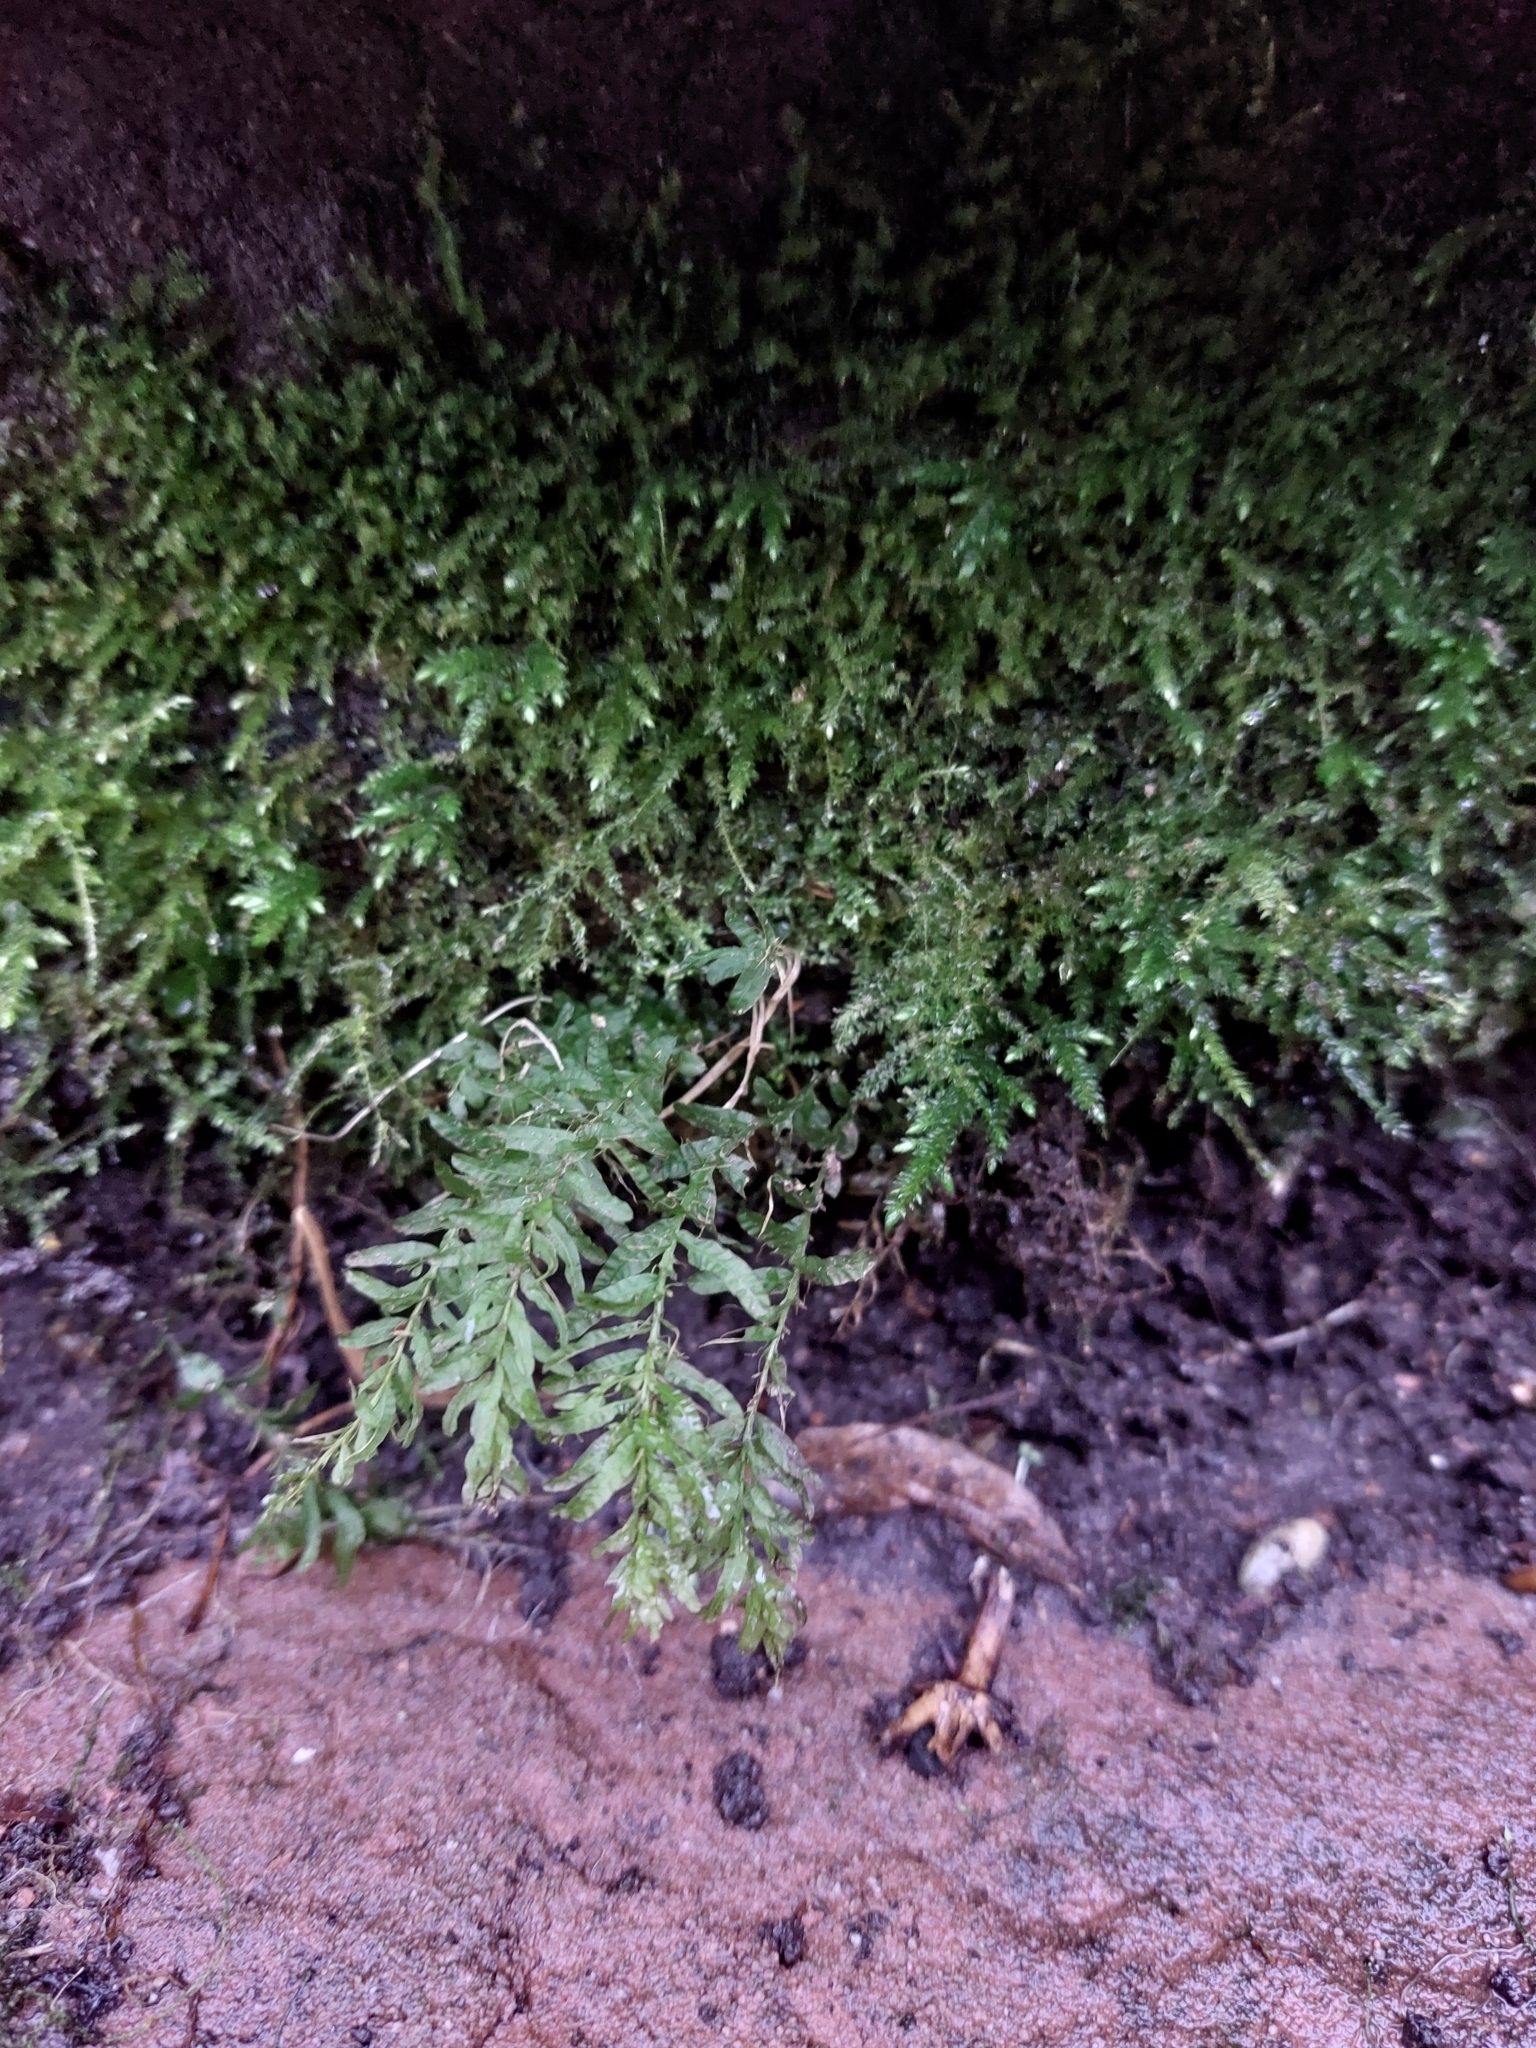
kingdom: Plantae
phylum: Bryophyta
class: Bryopsida
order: Bryales
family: Mniaceae
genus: Plagiomnium
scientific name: Plagiomnium undulatum
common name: Hart's-tongue thyme-moss
